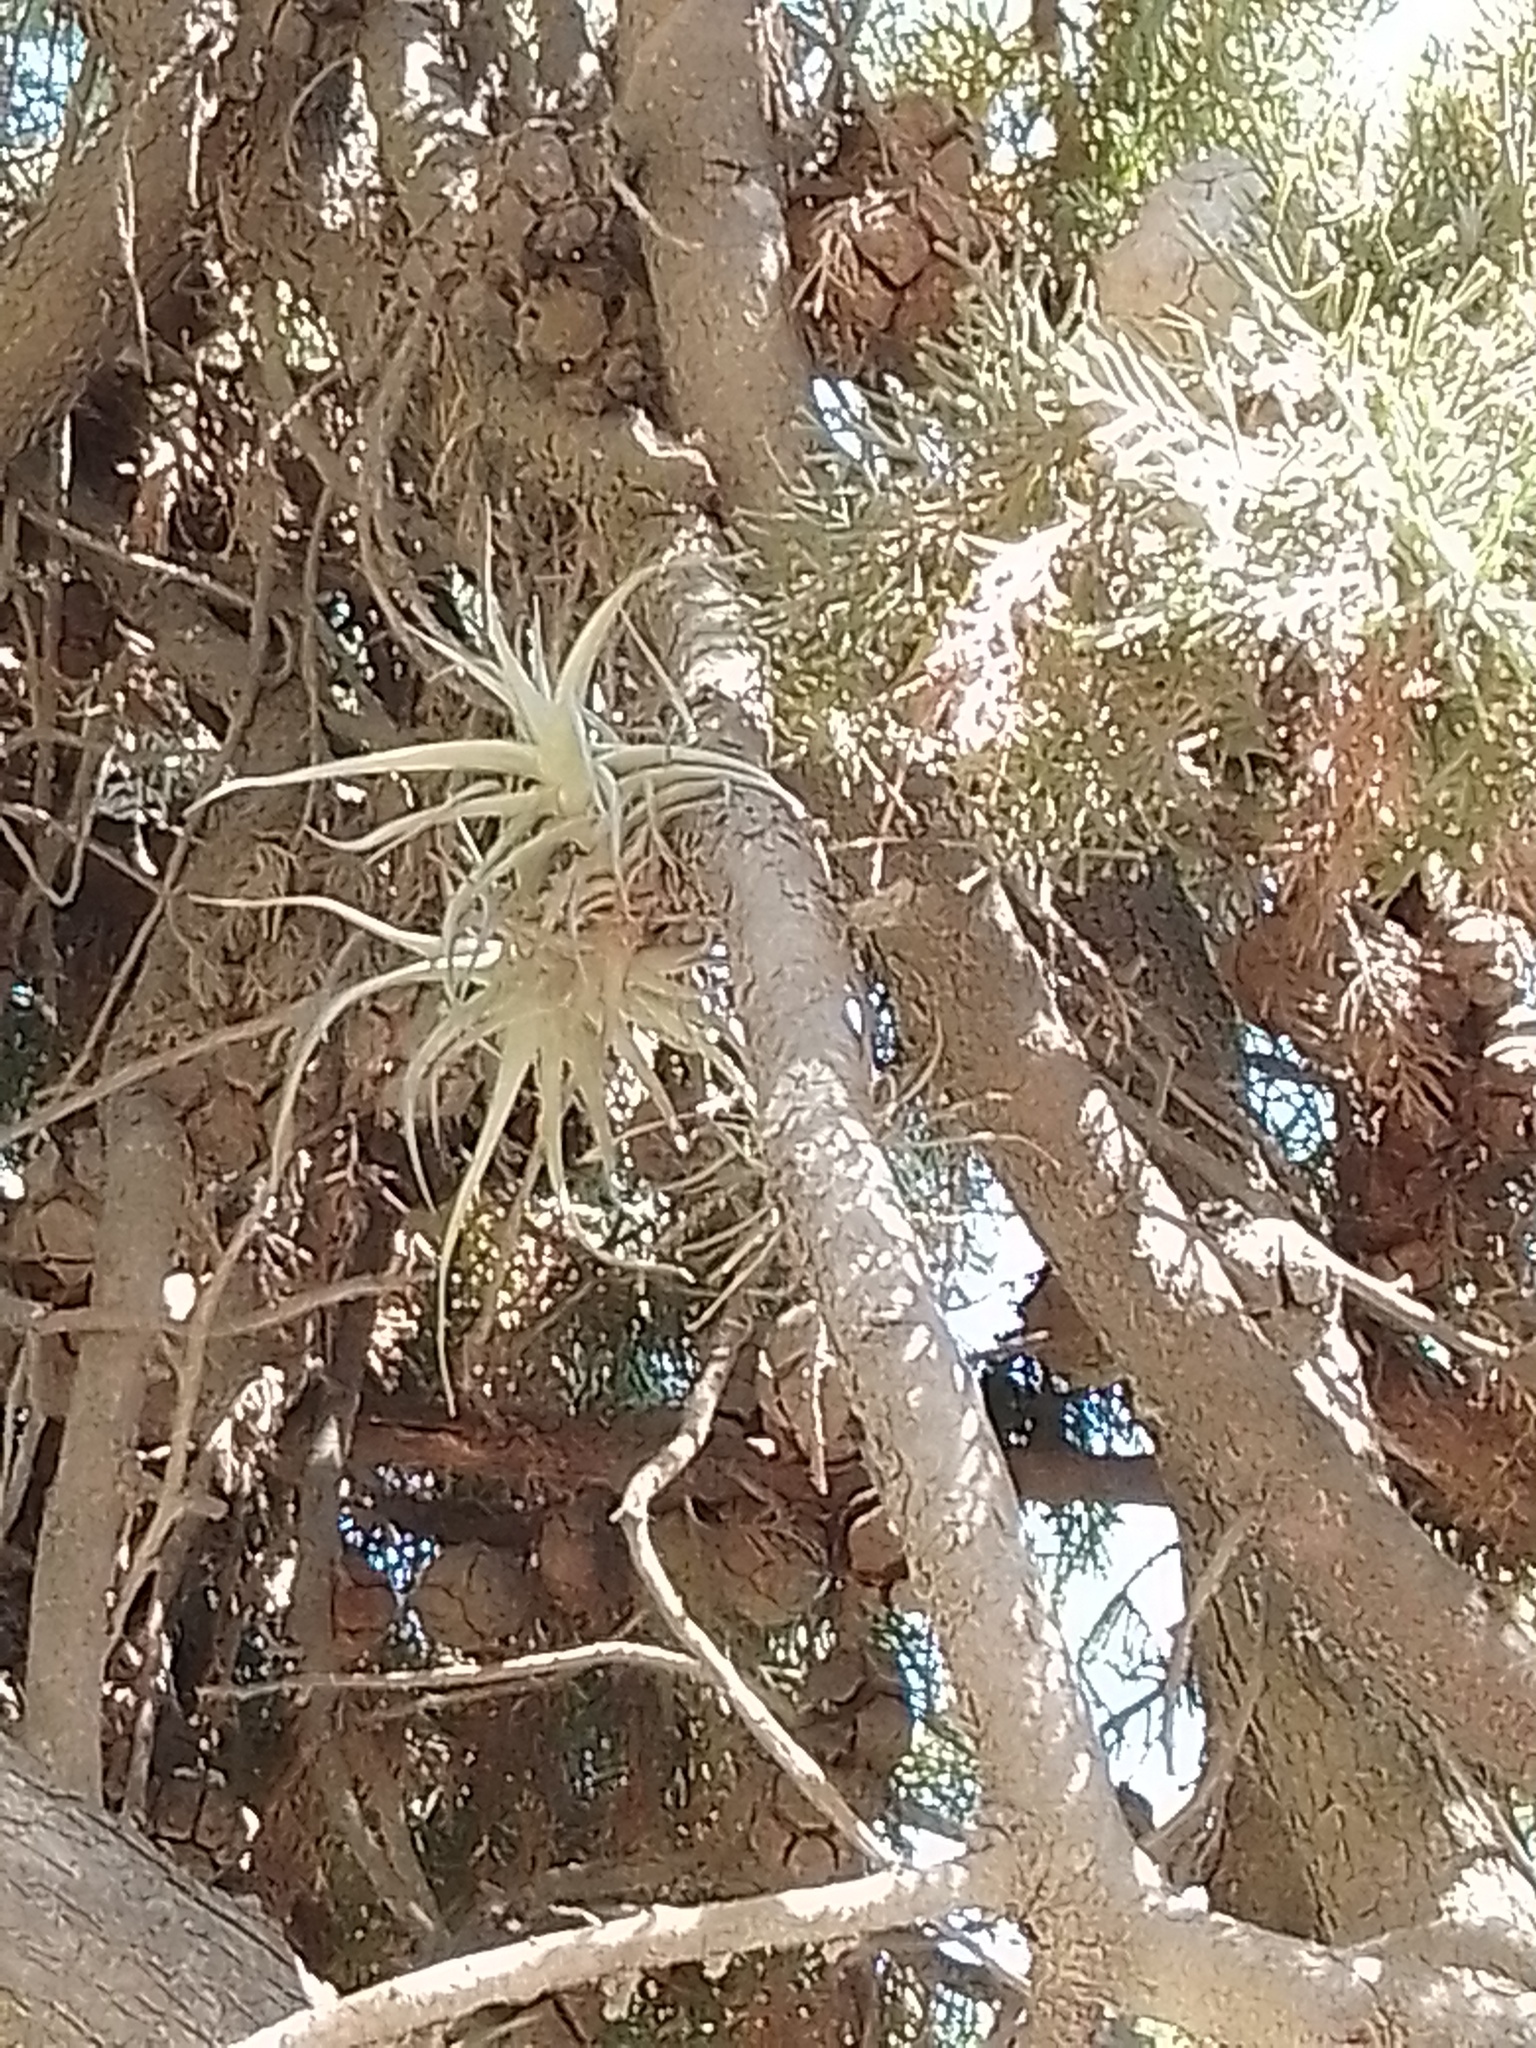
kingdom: Plantae
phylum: Tracheophyta
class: Liliopsida
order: Poales
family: Bromeliaceae
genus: Tillandsia
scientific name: Tillandsia aeranthos
